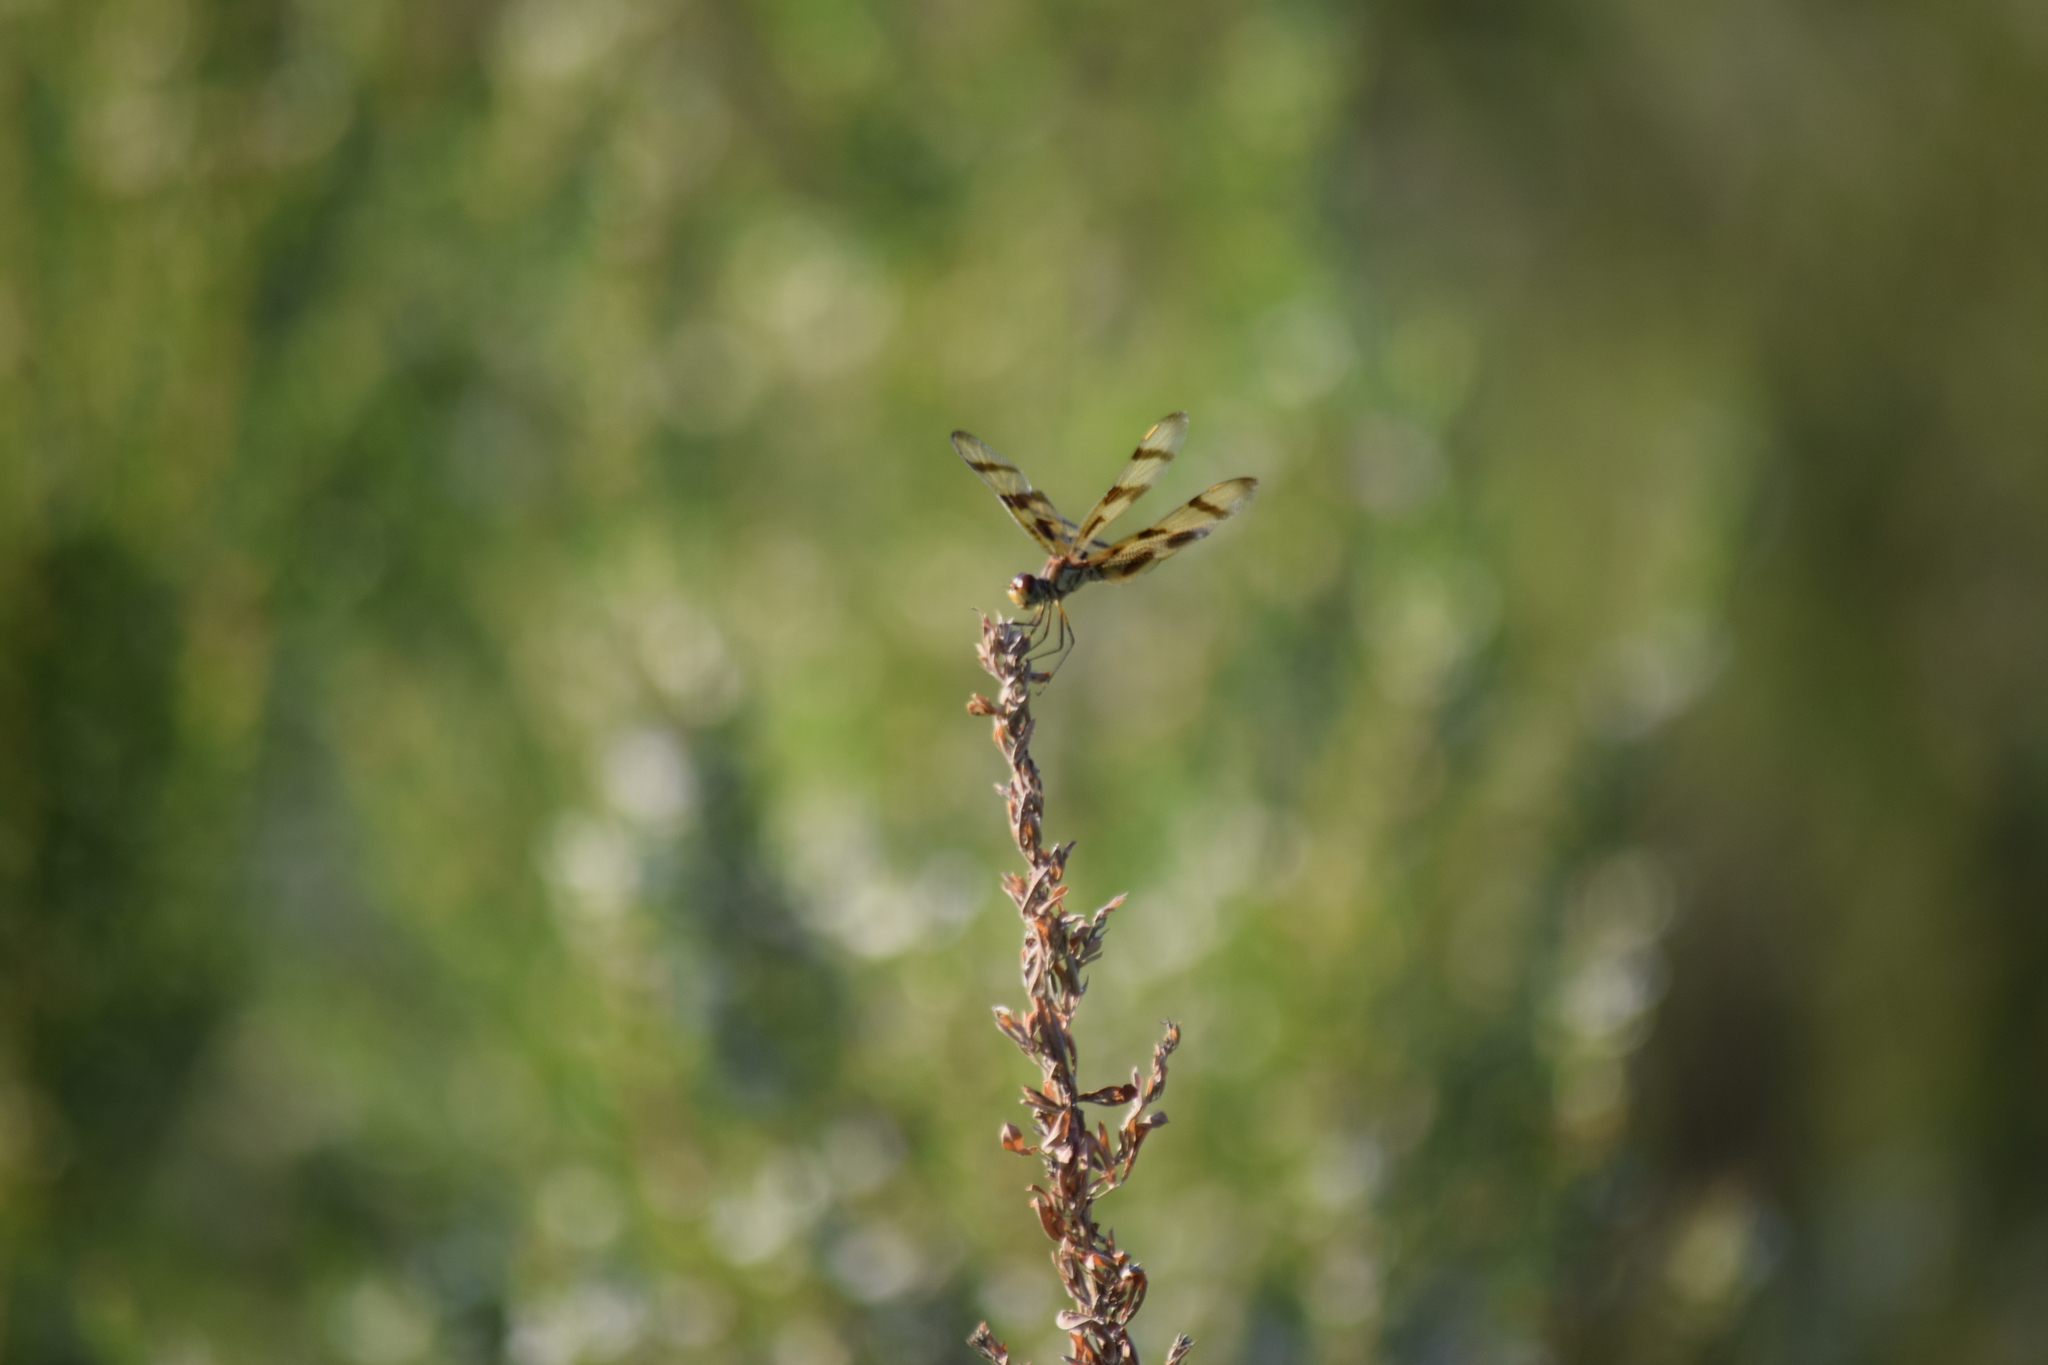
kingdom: Animalia
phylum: Arthropoda
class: Insecta
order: Odonata
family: Libellulidae
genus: Celithemis
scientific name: Celithemis eponina
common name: Halloween pennant
